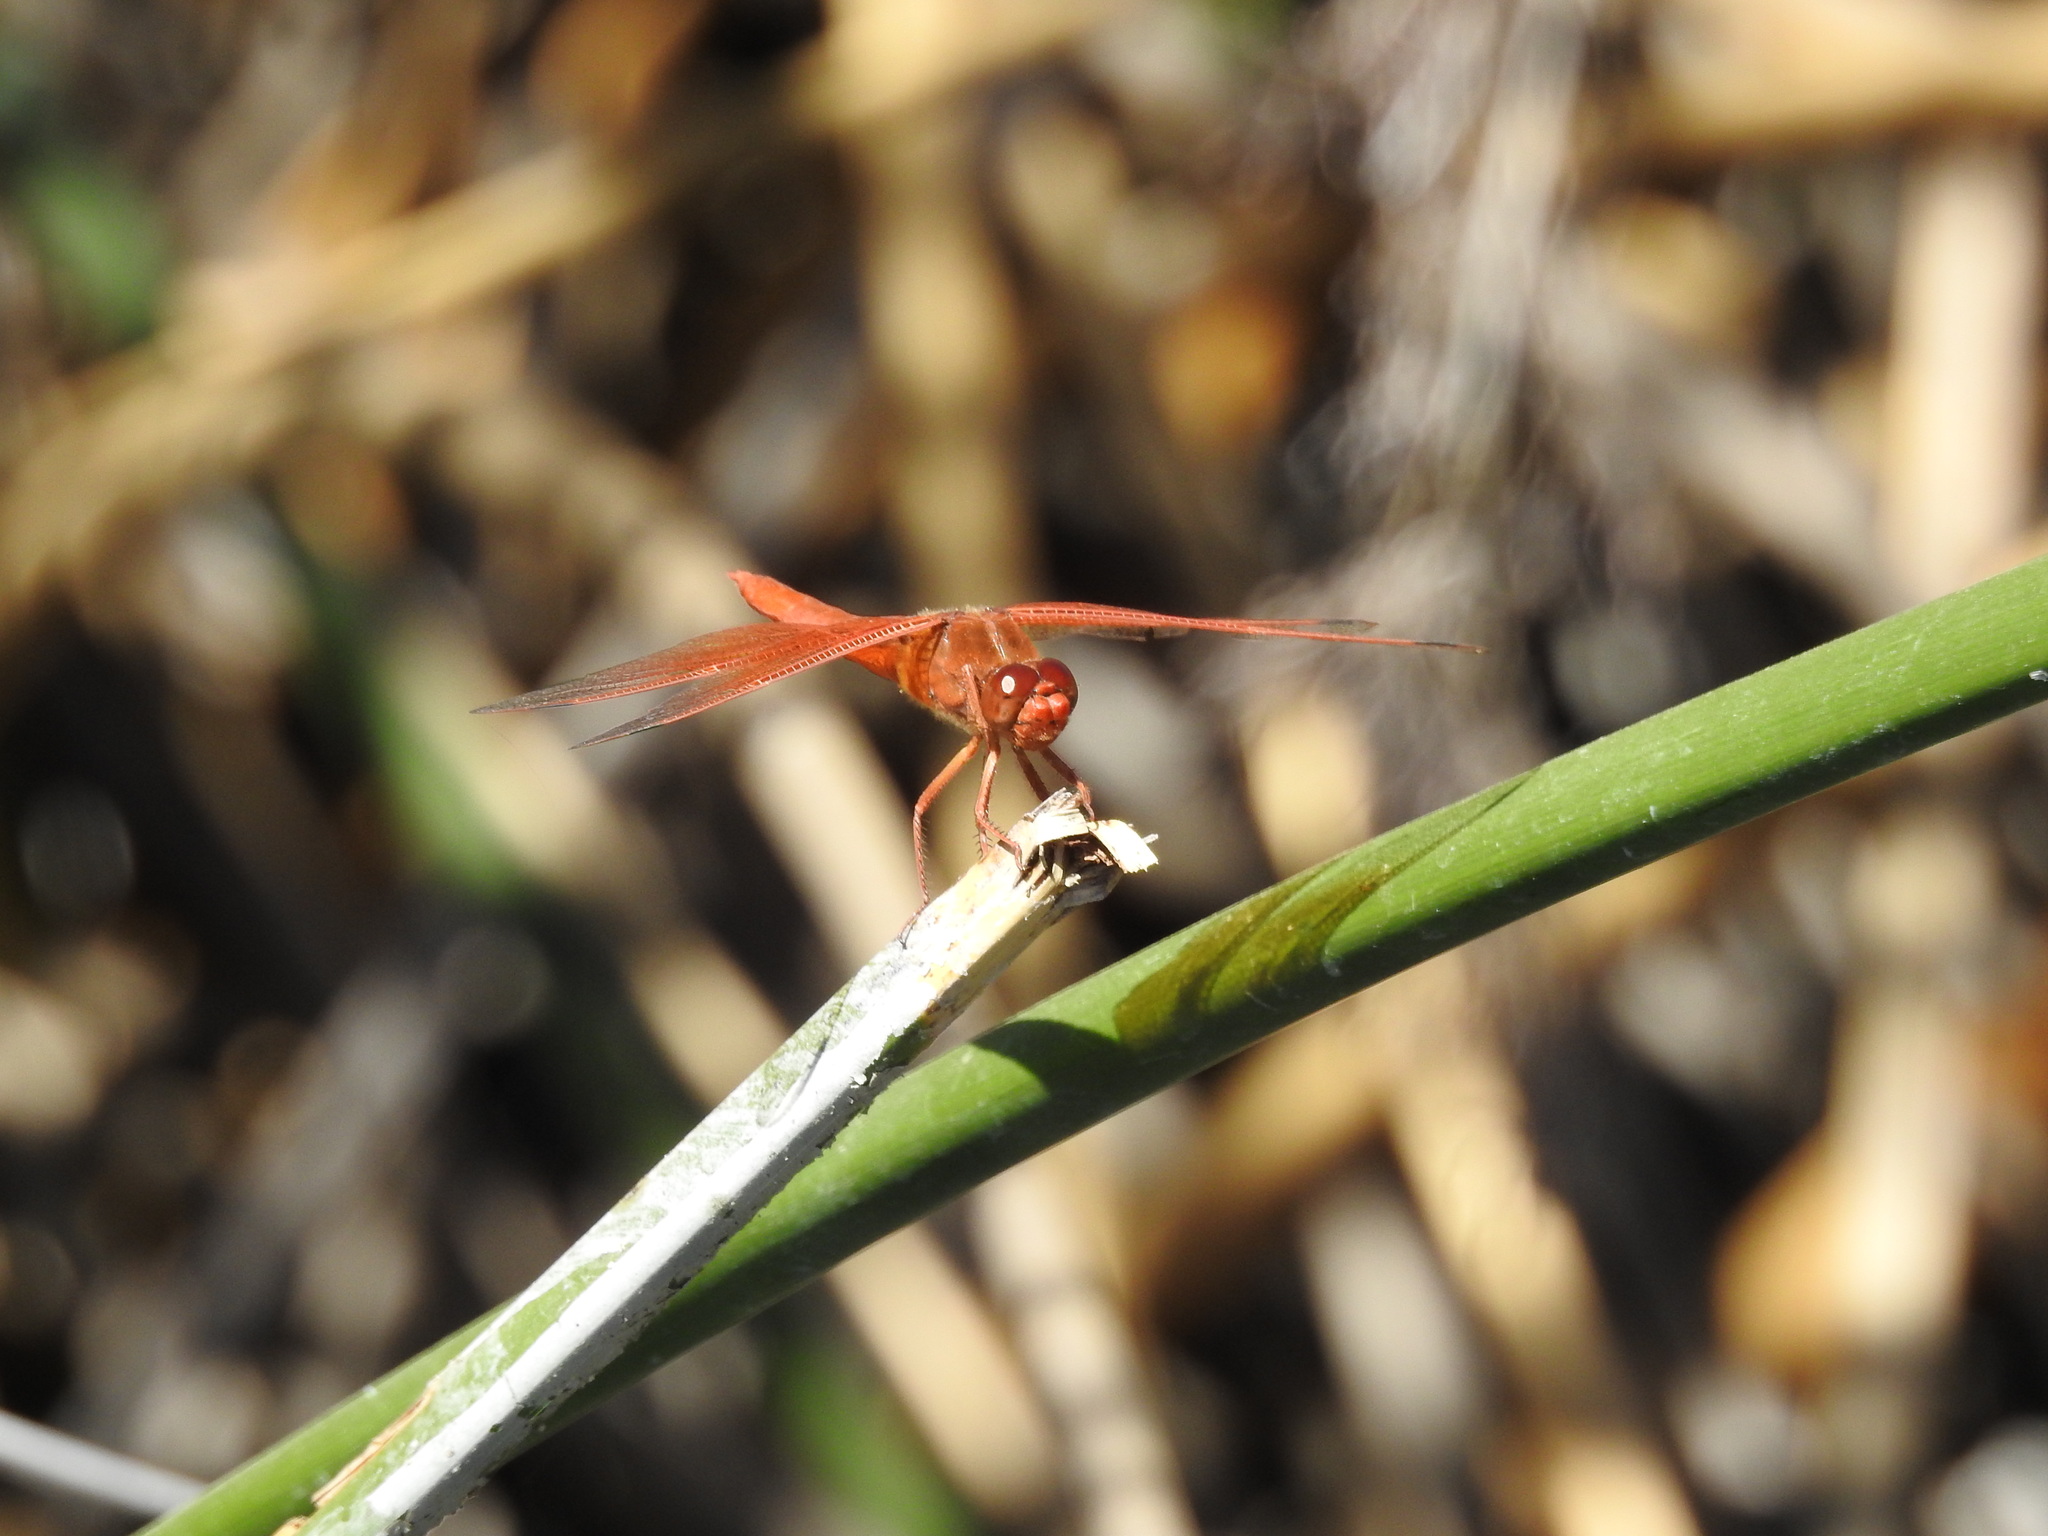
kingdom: Animalia
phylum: Arthropoda
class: Insecta
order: Odonata
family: Libellulidae
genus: Libellula
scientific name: Libellula saturata
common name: Flame skimmer
